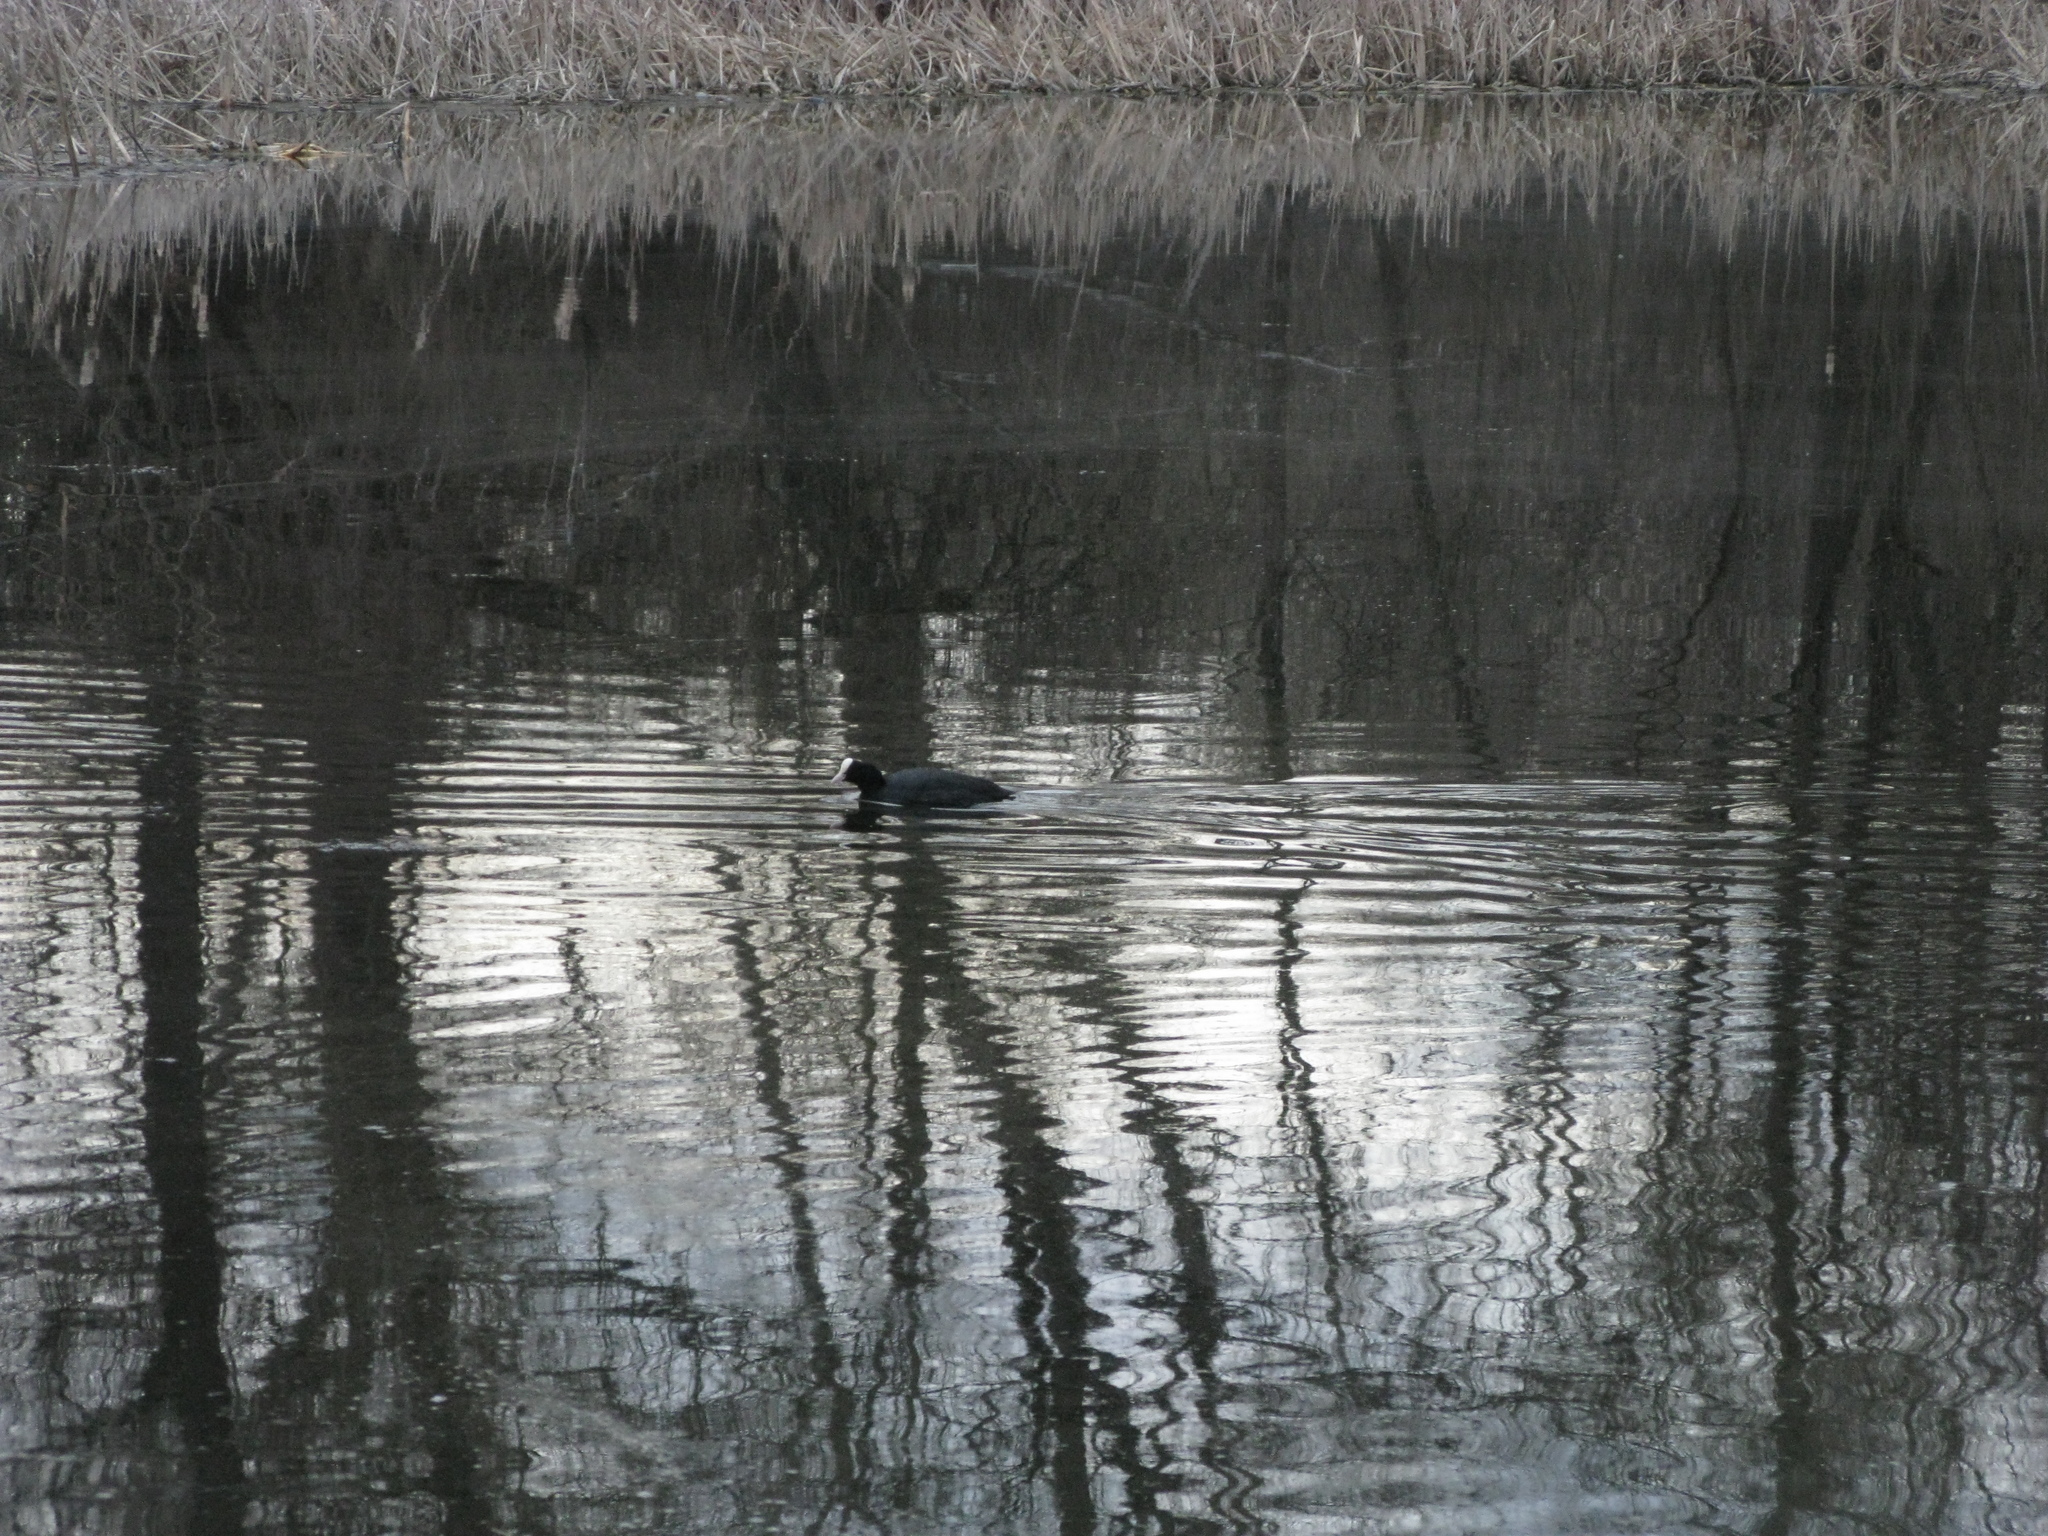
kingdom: Animalia
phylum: Chordata
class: Aves
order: Gruiformes
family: Rallidae
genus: Fulica
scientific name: Fulica atra
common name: Eurasian coot
